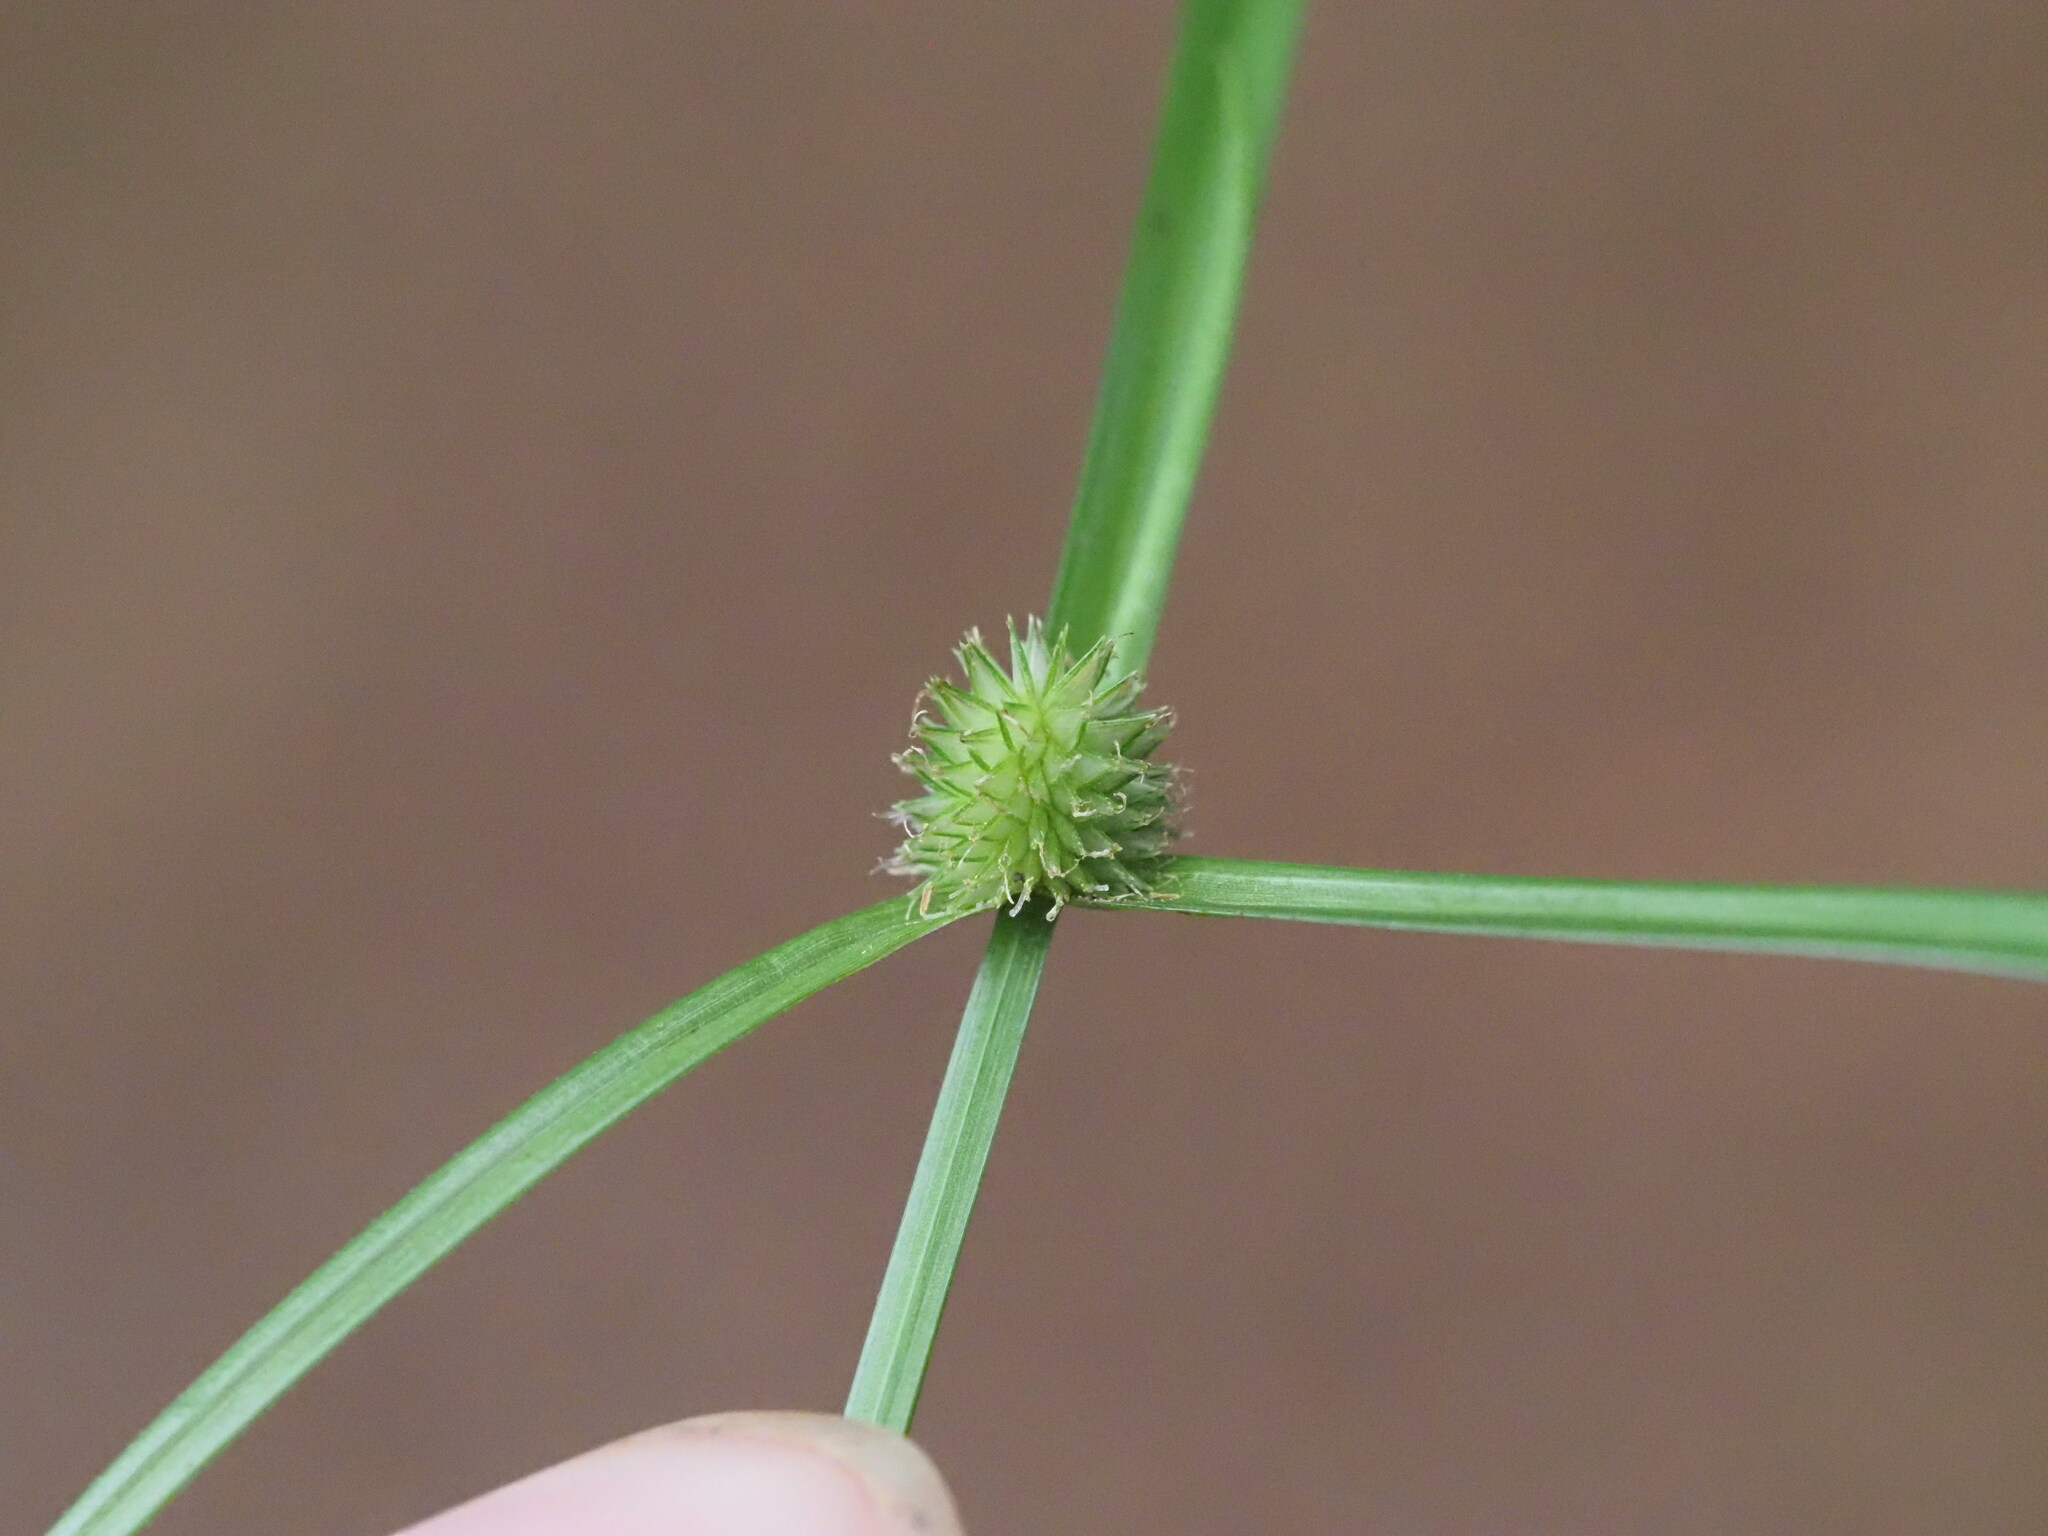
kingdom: Plantae
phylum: Tracheophyta
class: Liliopsida
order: Poales
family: Cyperaceae
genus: Cyperus
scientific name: Cyperus brevifolius
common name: Globe kyllinga
